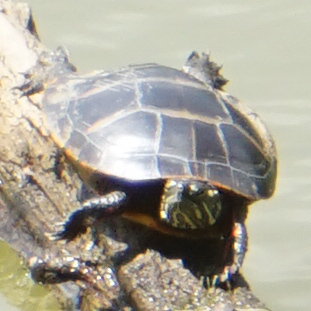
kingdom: Animalia
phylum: Chordata
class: Testudines
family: Emydidae
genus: Chrysemys
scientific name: Chrysemys picta
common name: Painted turtle
